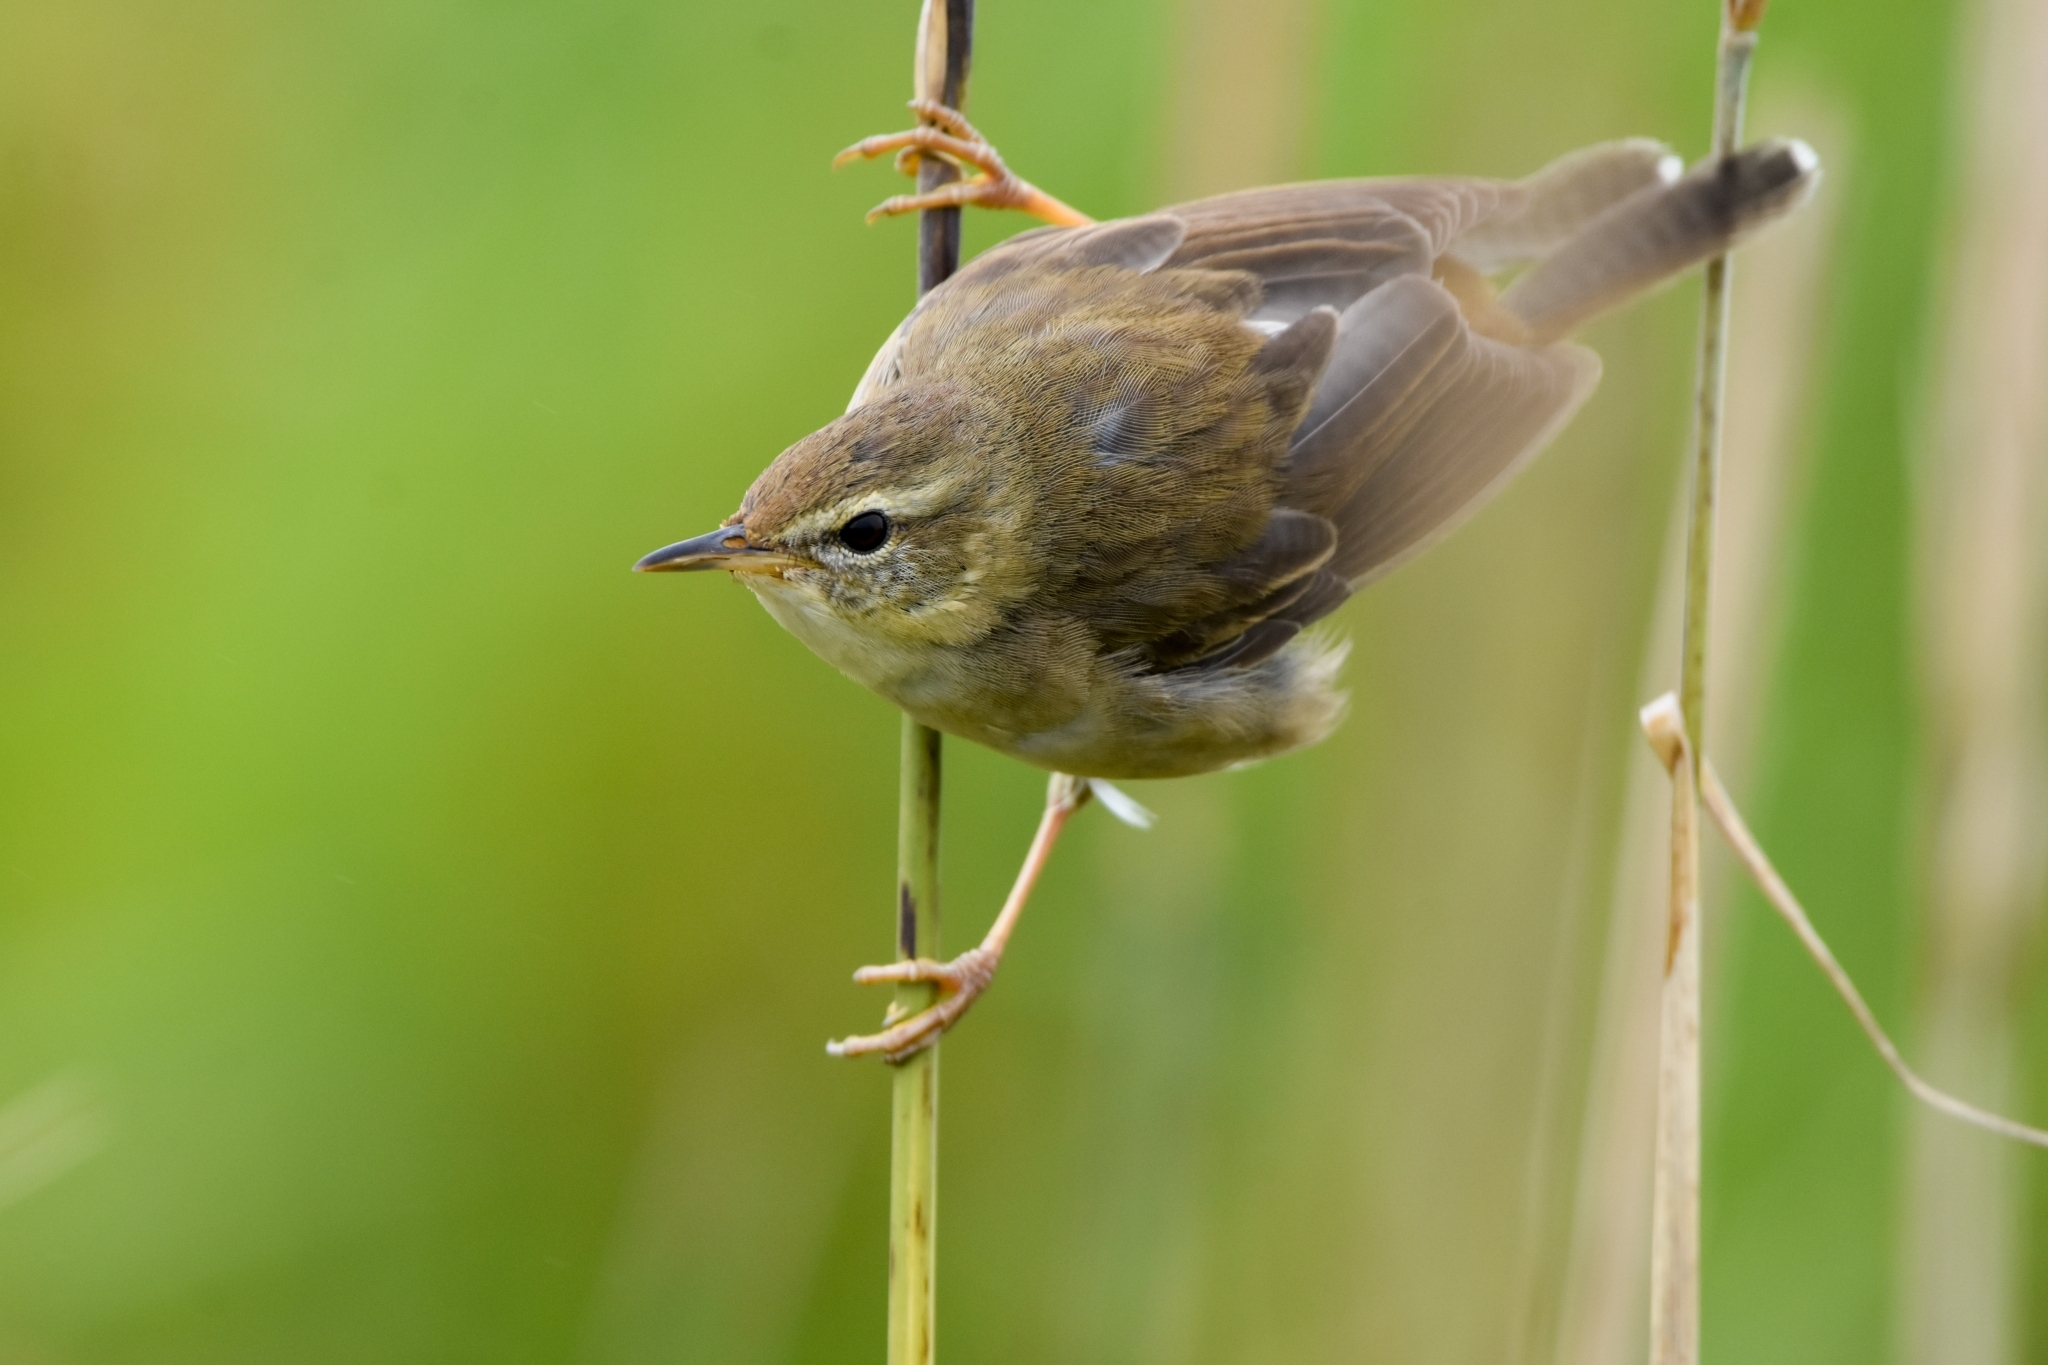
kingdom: Animalia
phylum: Chordata
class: Aves
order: Passeriformes
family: Locustellidae
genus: Locustella
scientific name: Locustella ochotensis
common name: Middendorff's grasshopper-warbler
